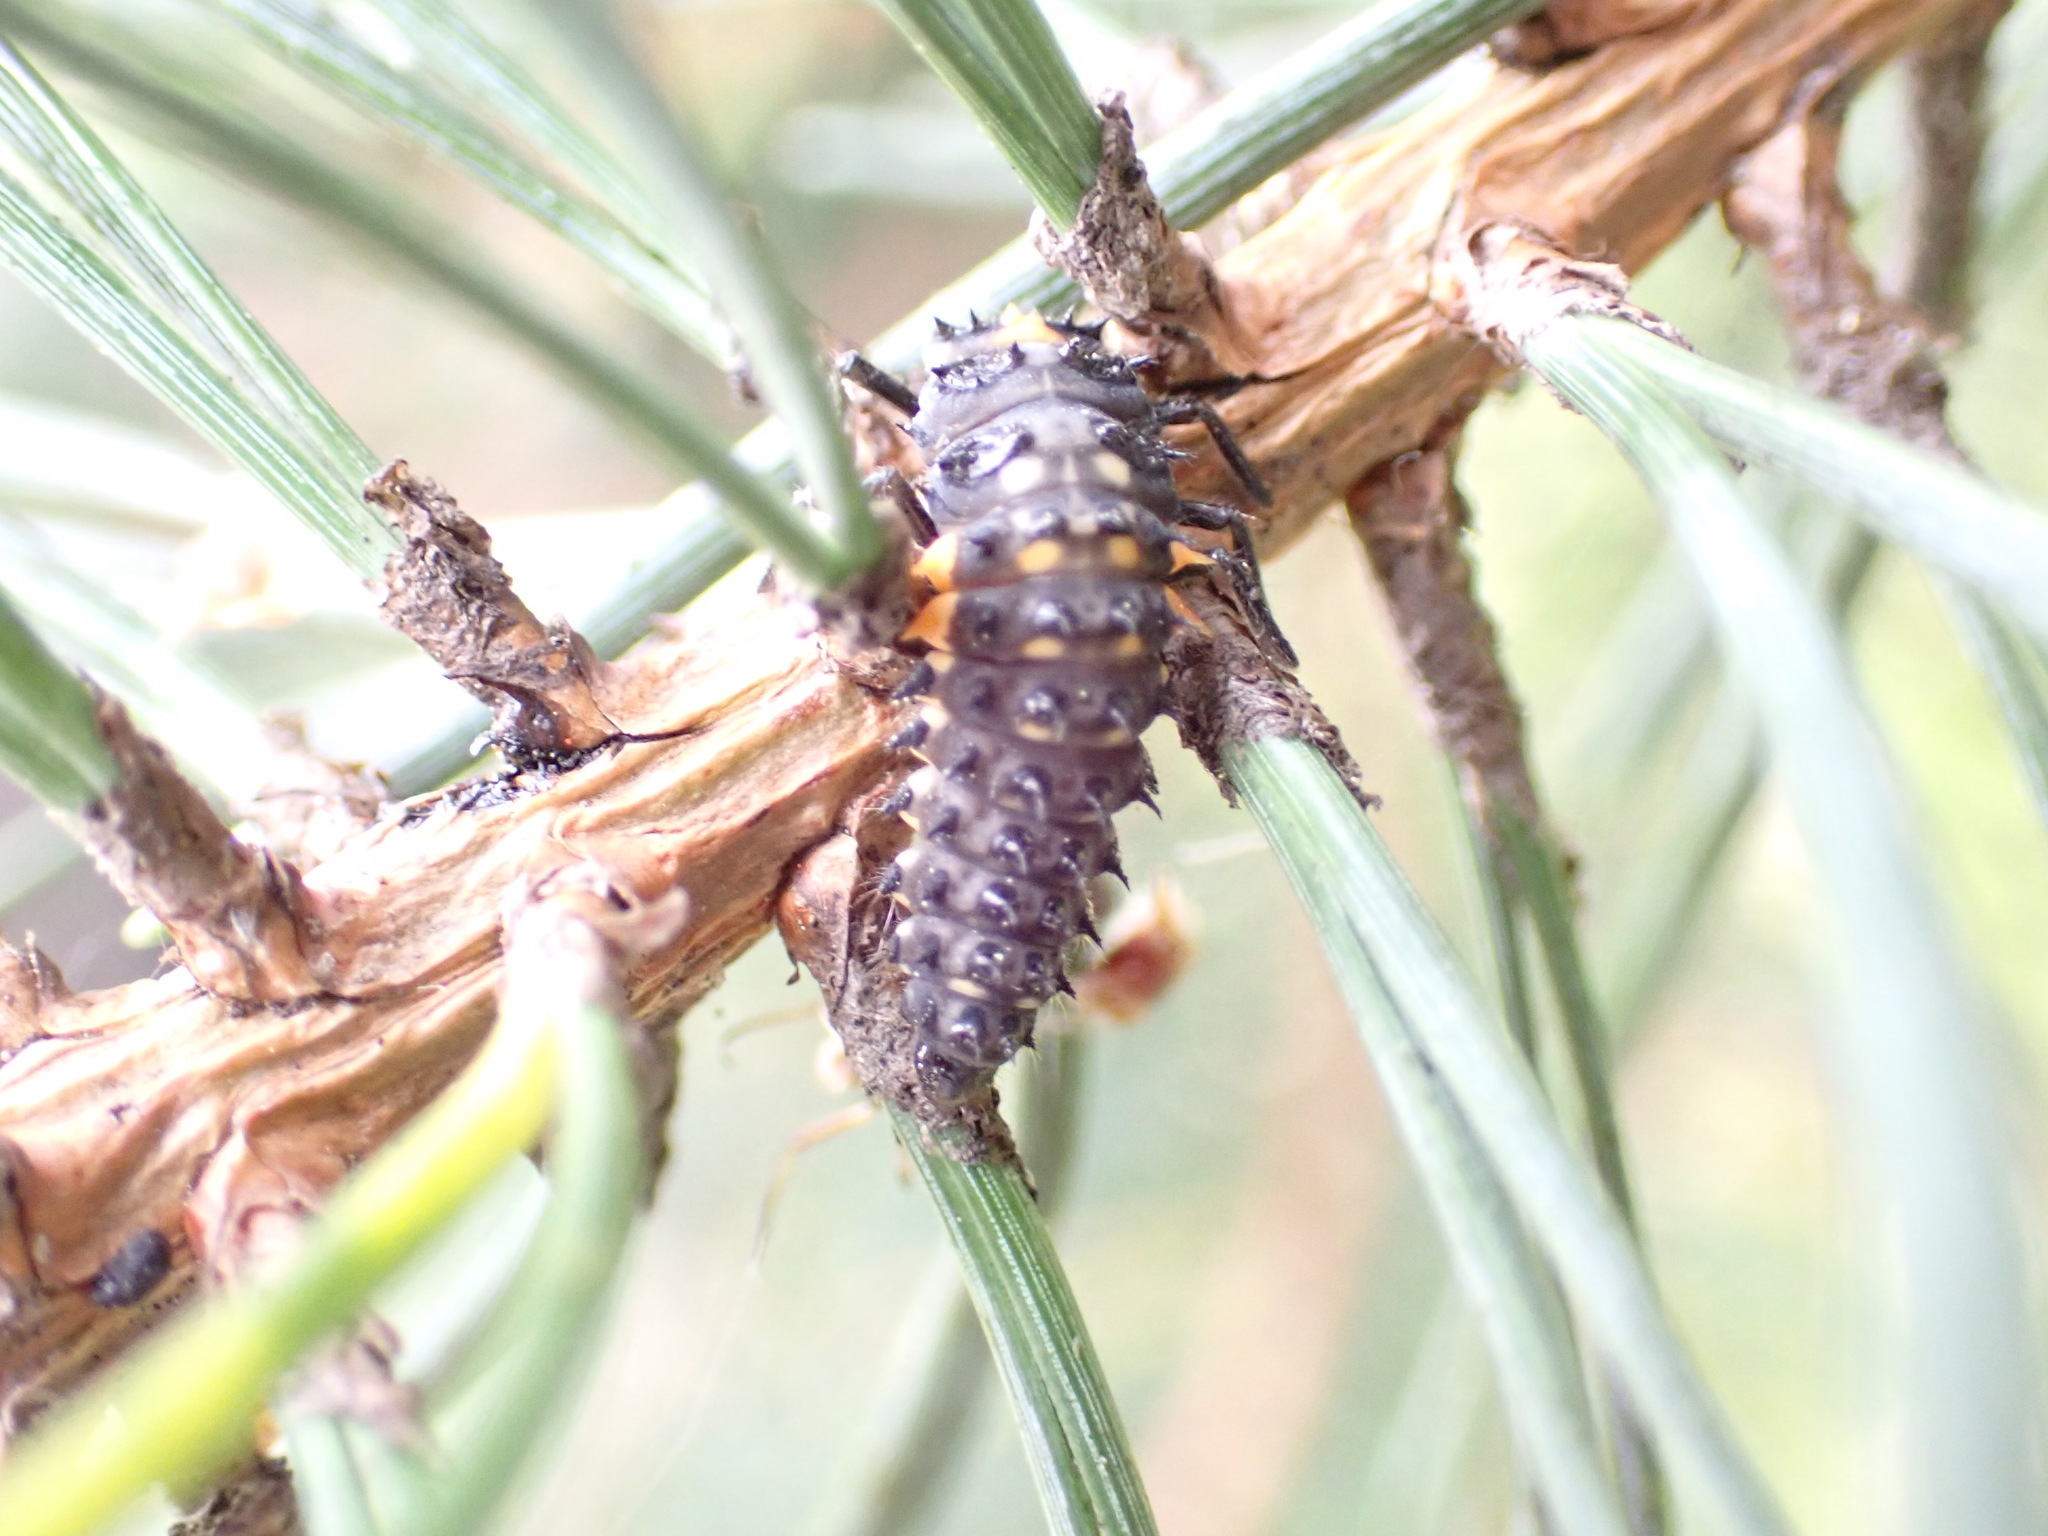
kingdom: Animalia
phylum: Arthropoda
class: Insecta
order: Coleoptera
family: Coccinellidae
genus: Anatis
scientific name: Anatis ocellata
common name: Eyed ladybird
